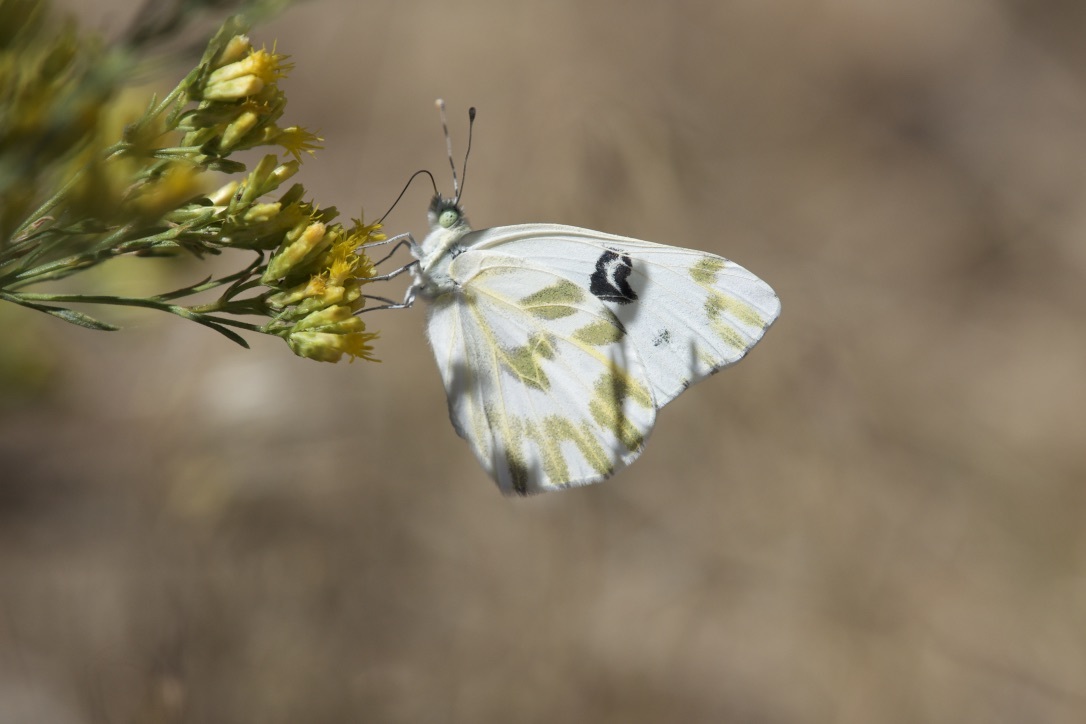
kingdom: Animalia
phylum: Arthropoda
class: Insecta
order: Lepidoptera
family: Pieridae
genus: Pontia
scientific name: Pontia beckerii
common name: Becker's white
